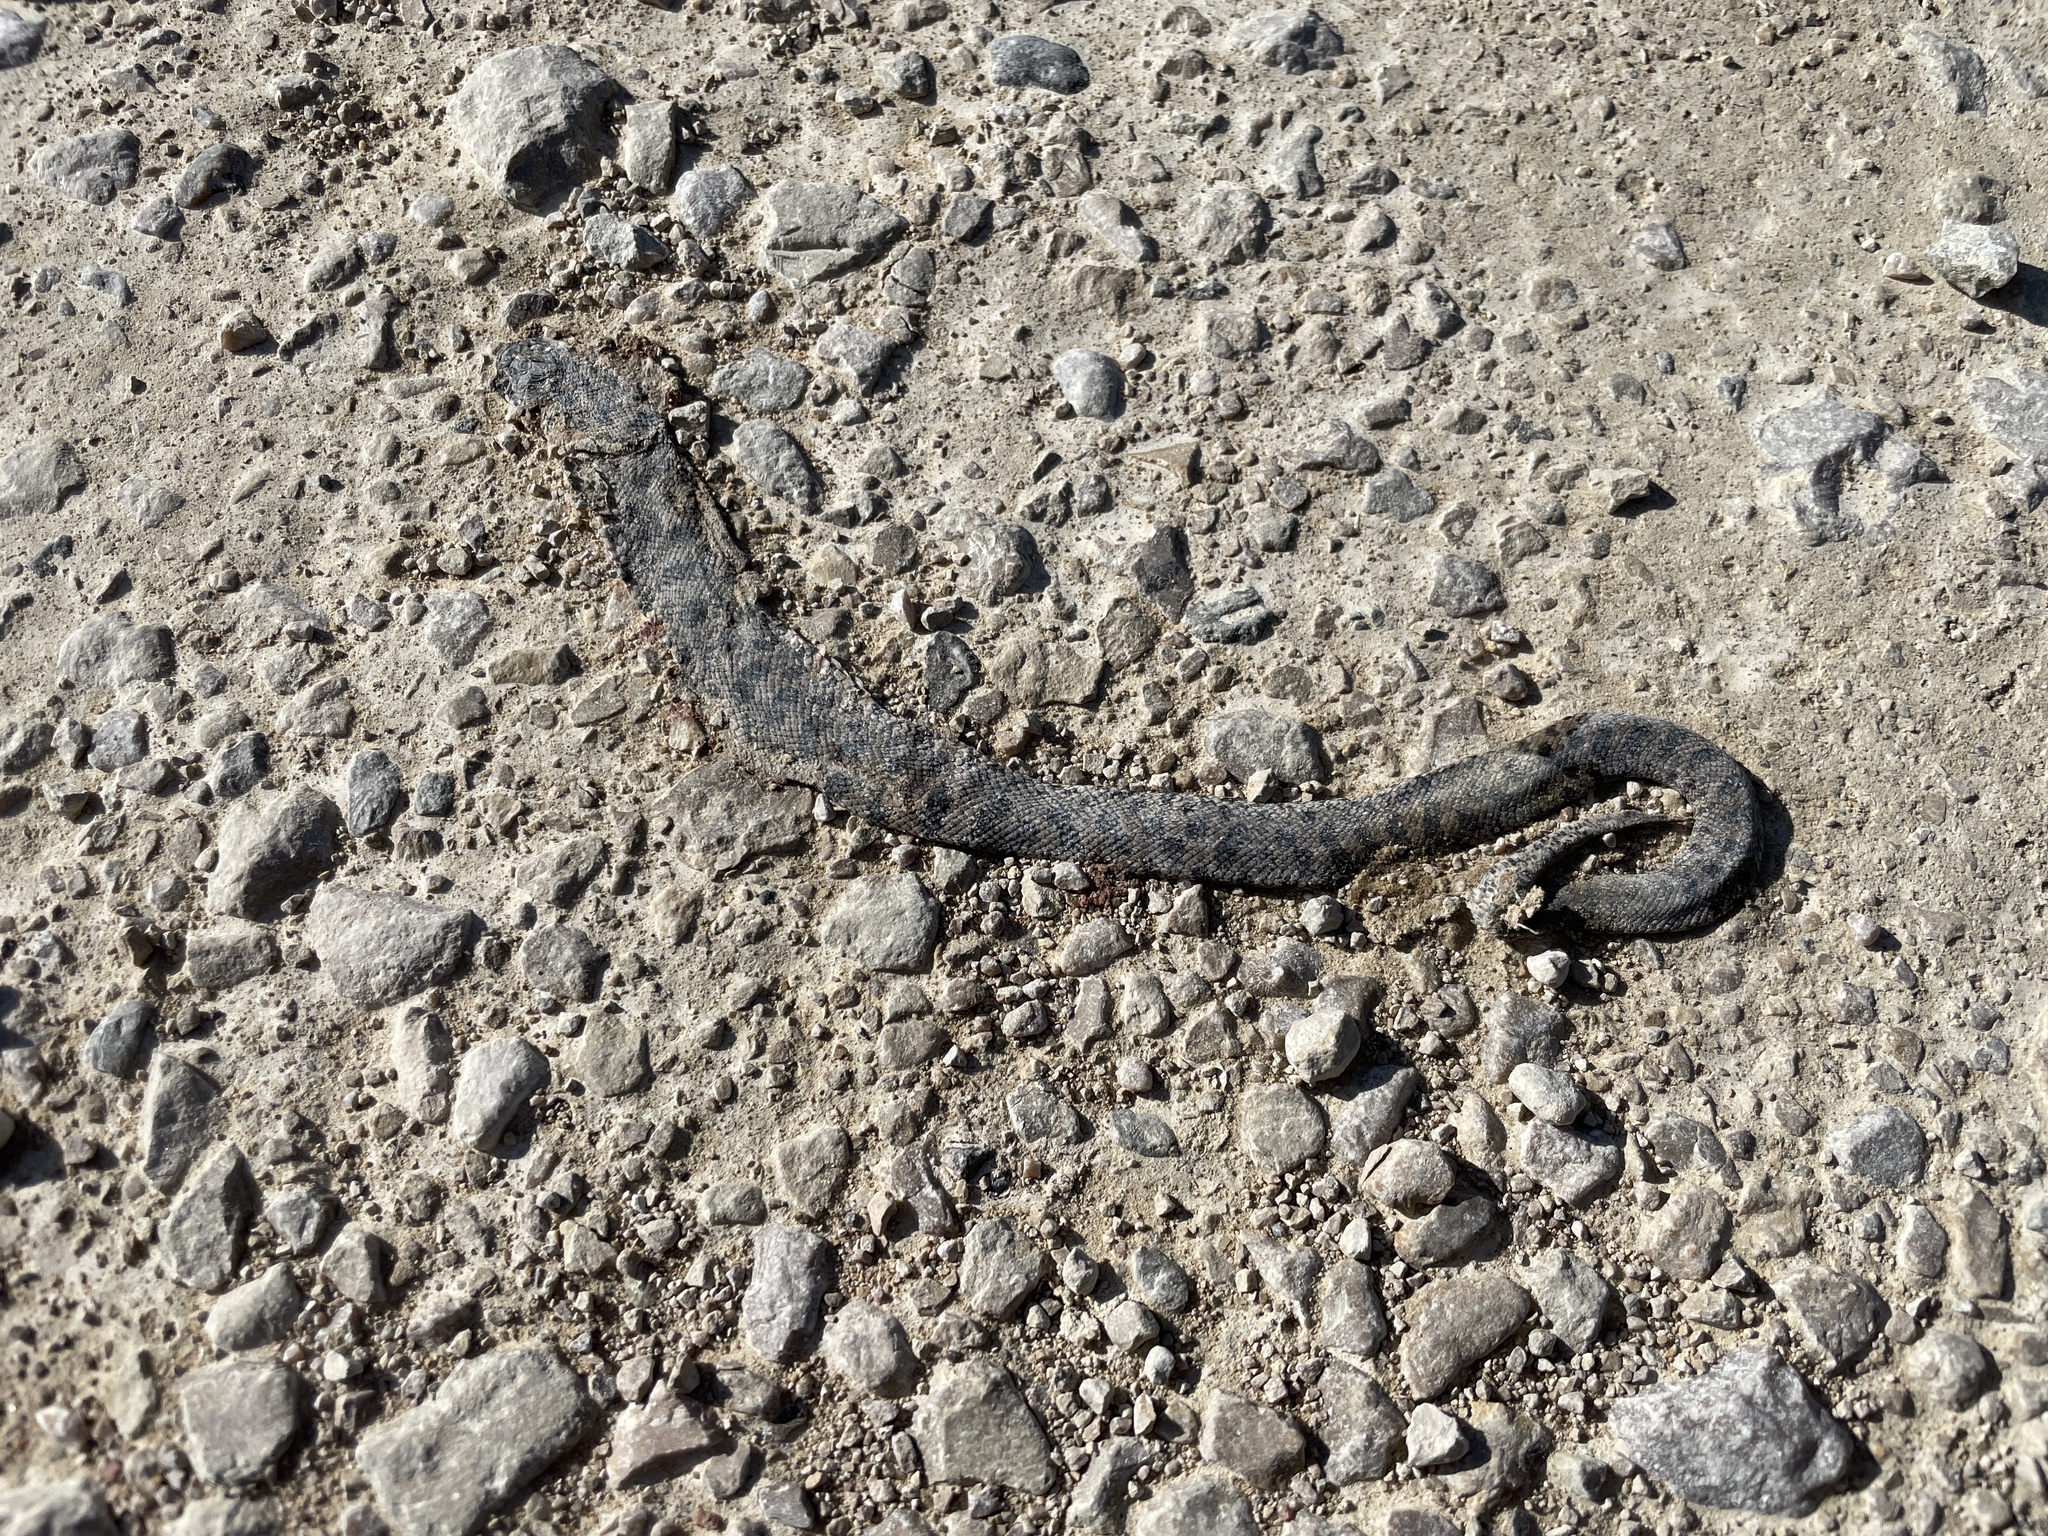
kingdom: Animalia
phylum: Chordata
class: Squamata
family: Colubridae
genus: Pantherophis
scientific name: Pantherophis ramspotti
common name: Western foxsnake
